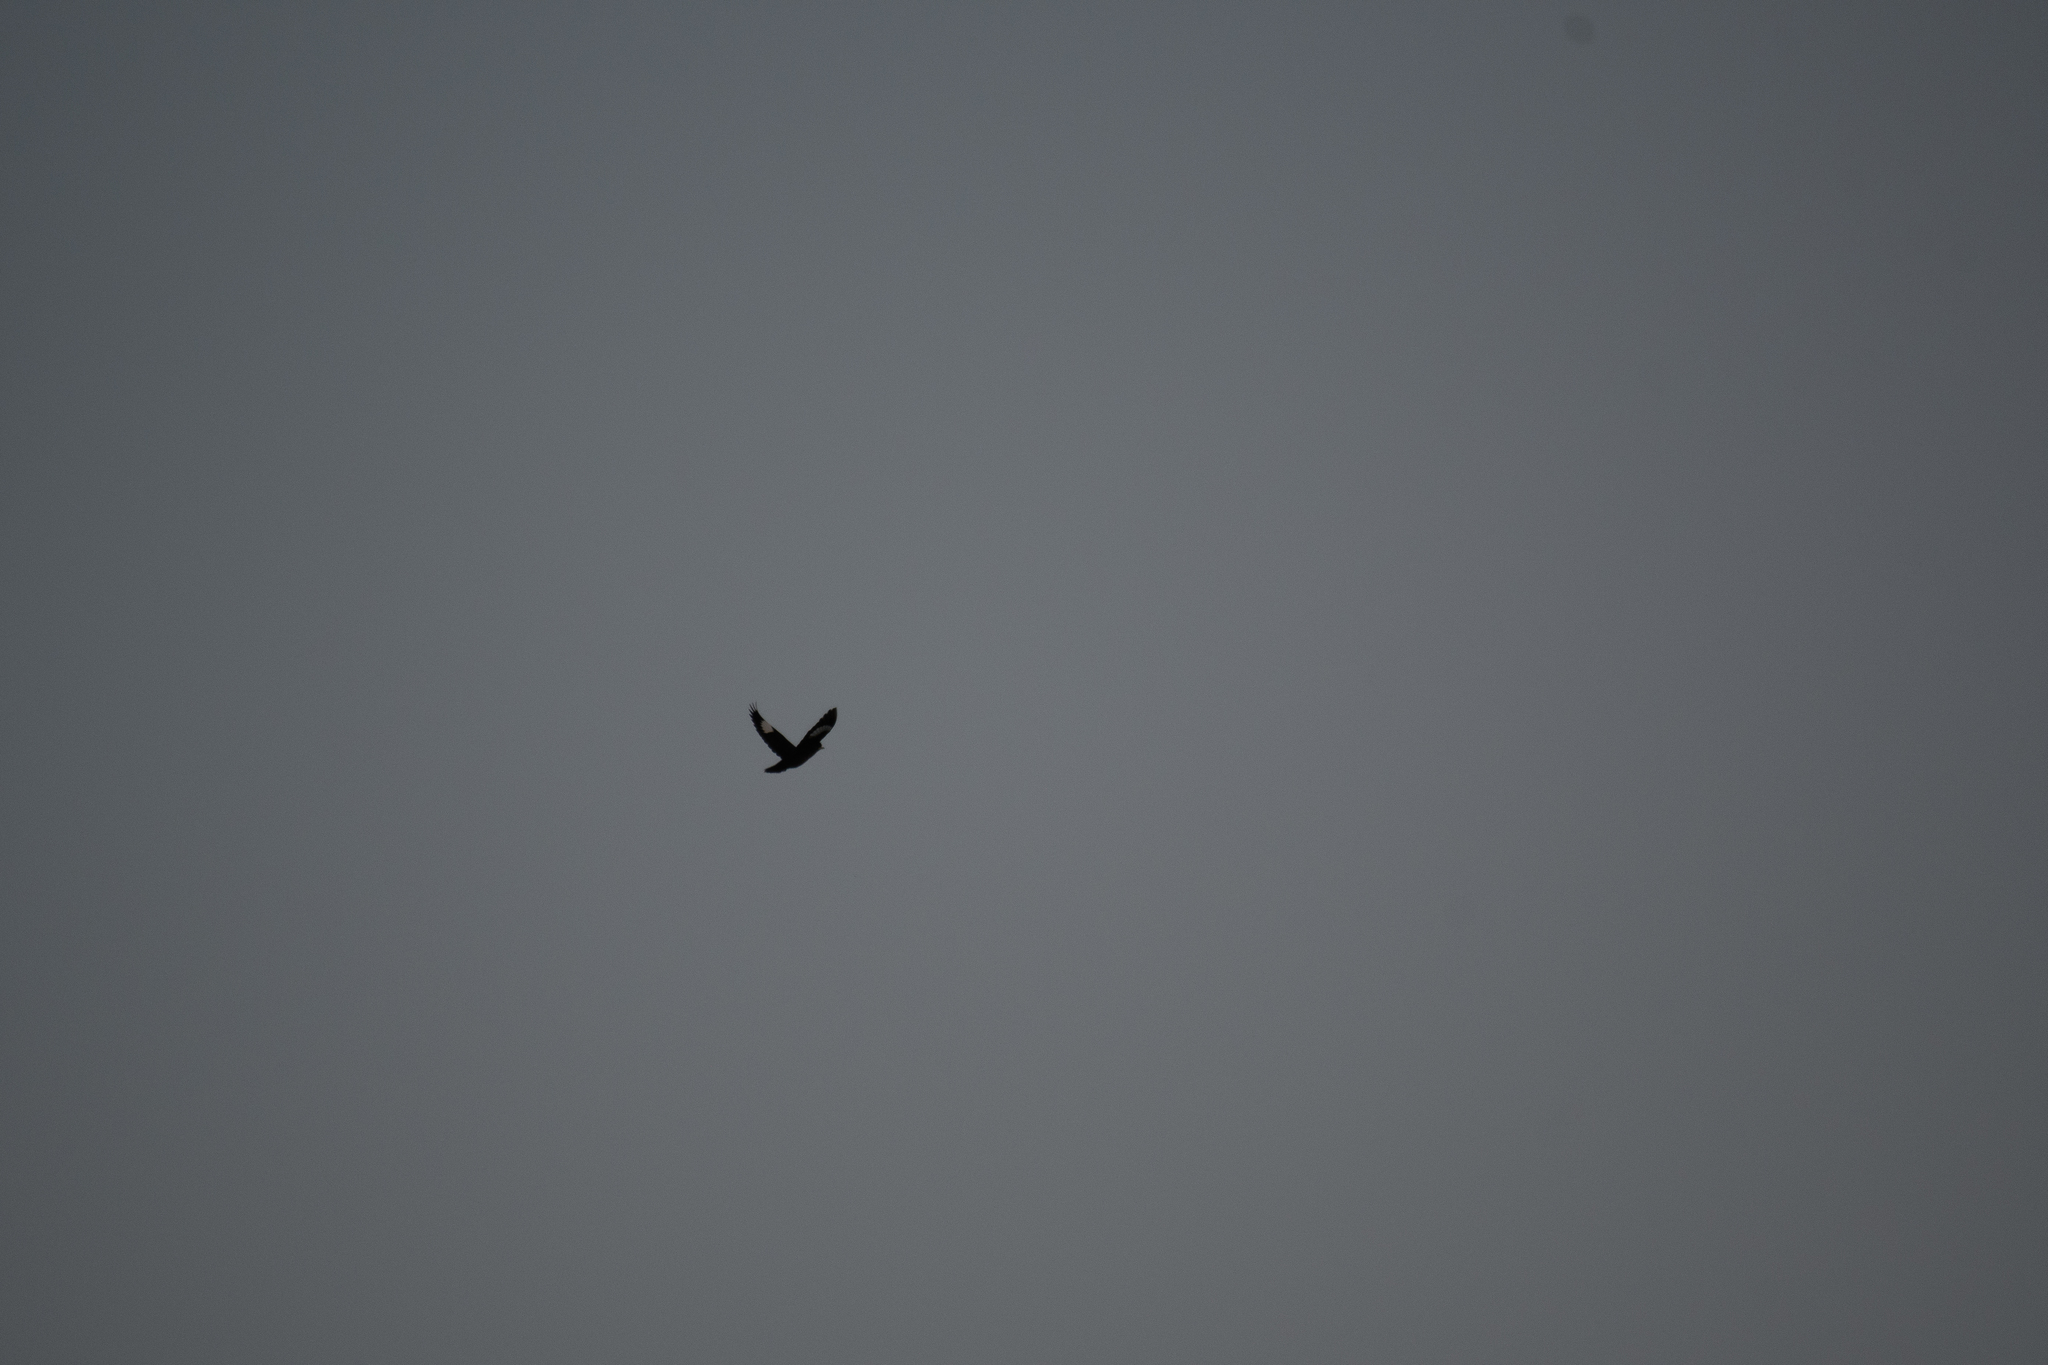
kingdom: Animalia
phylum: Chordata
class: Aves
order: Passeriformes
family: Sturnidae
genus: Acridotheres
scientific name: Acridotheres cristatellus
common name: Crested myna
